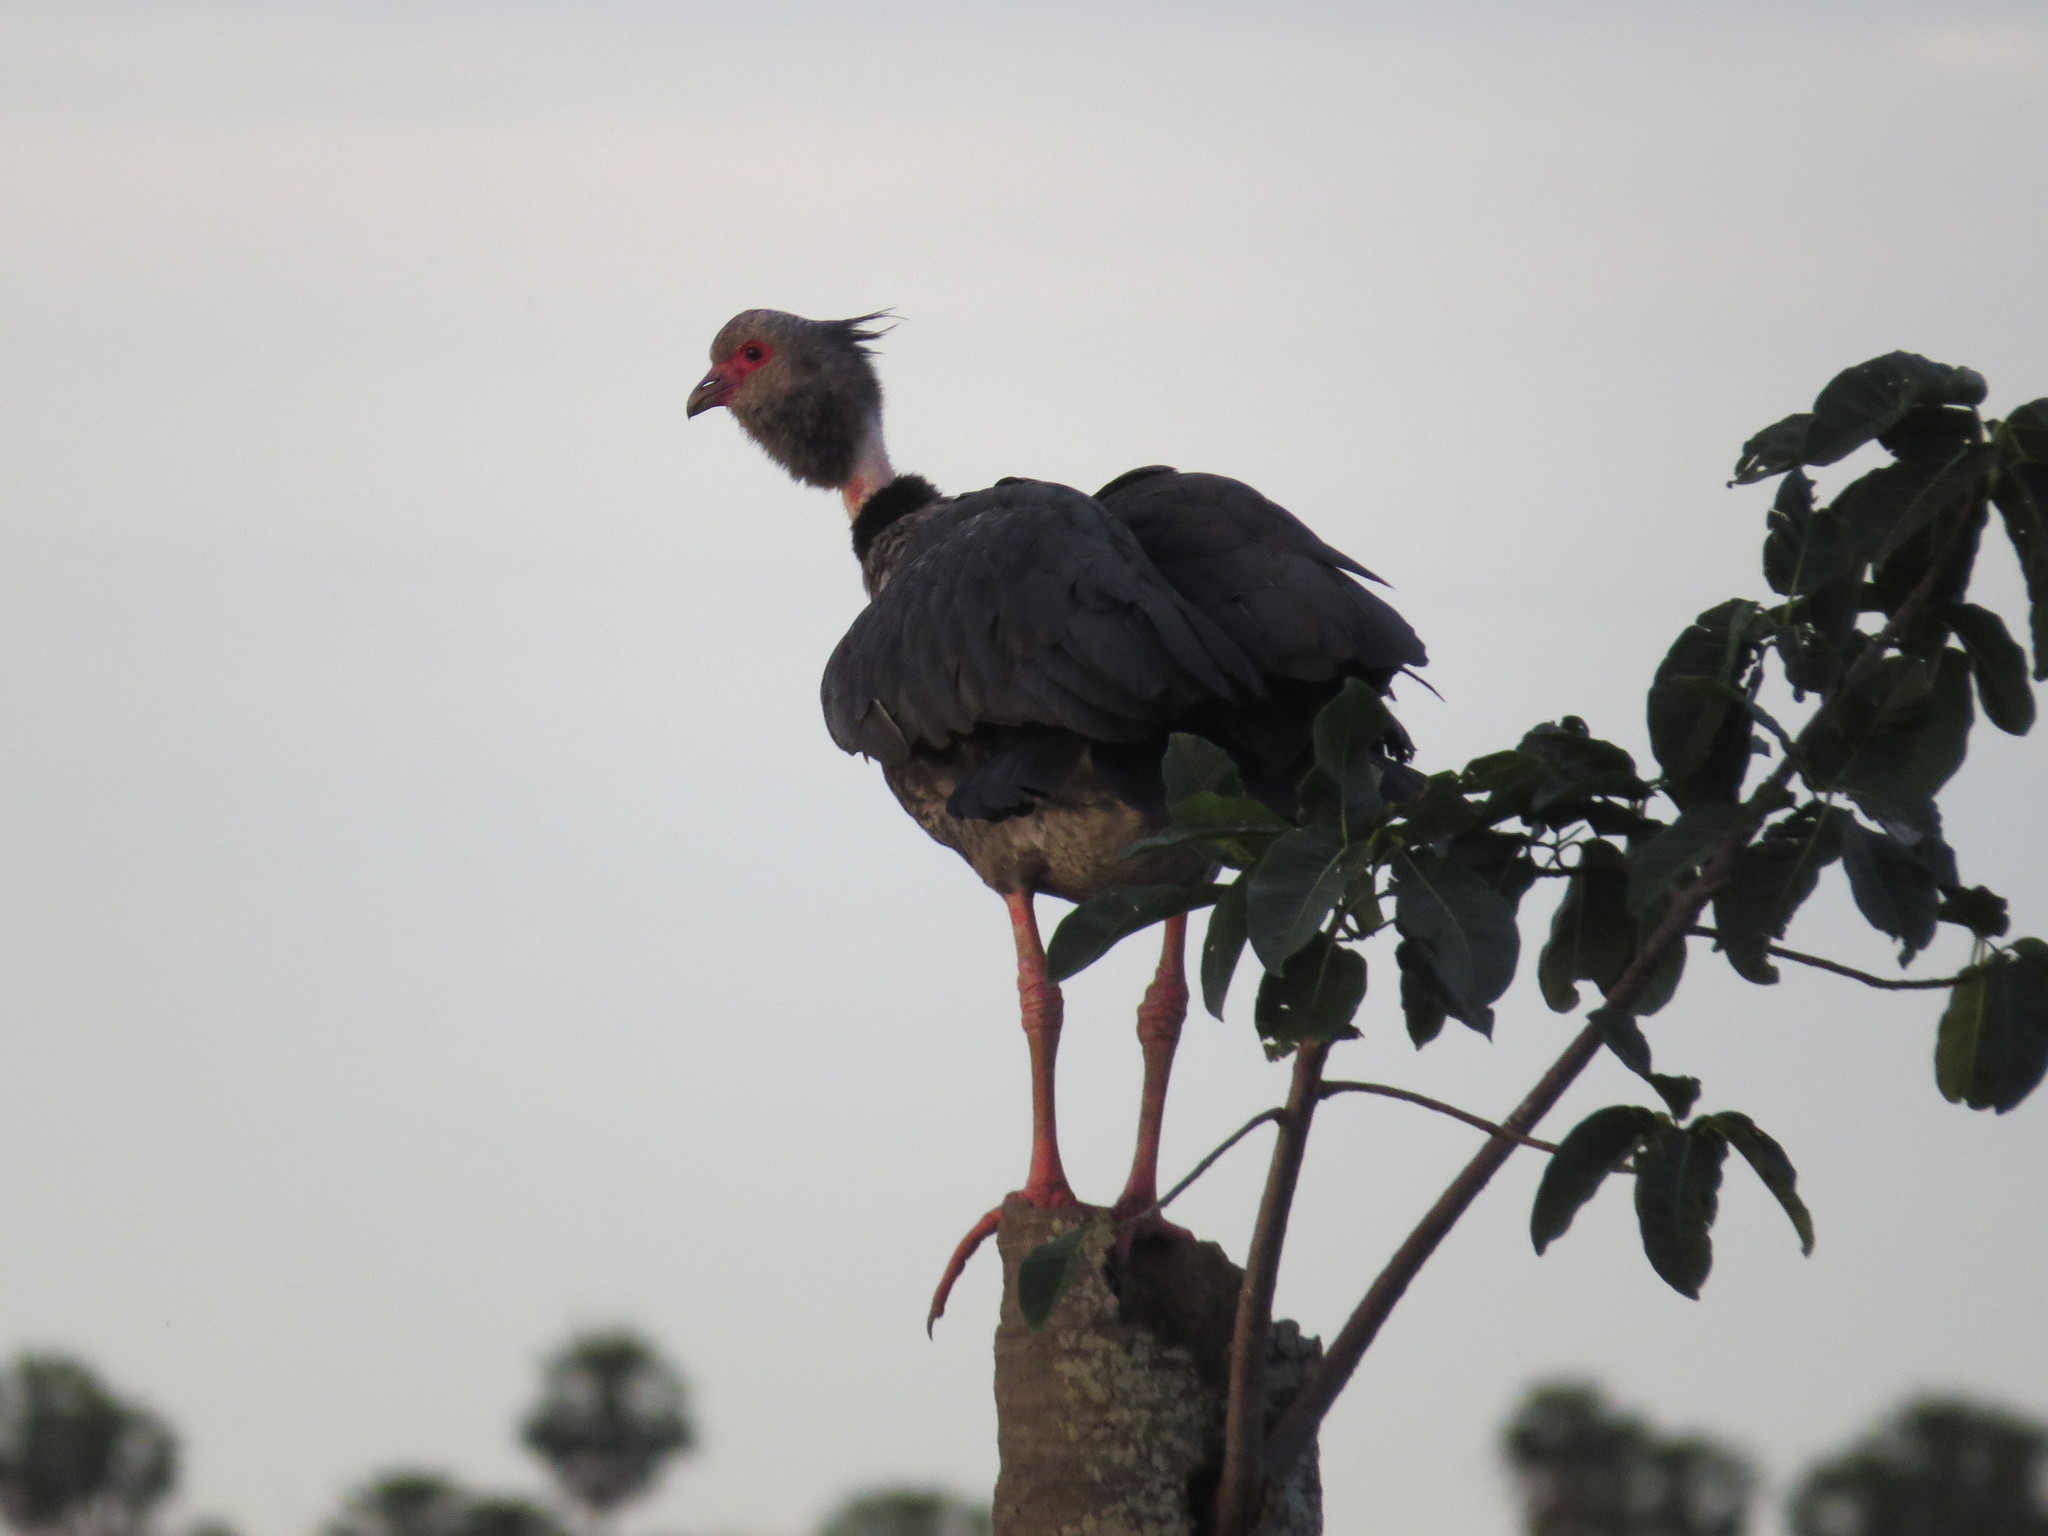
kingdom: Animalia
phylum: Chordata
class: Aves
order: Anseriformes
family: Anhimidae
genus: Chauna
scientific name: Chauna torquata
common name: Southern screamer
